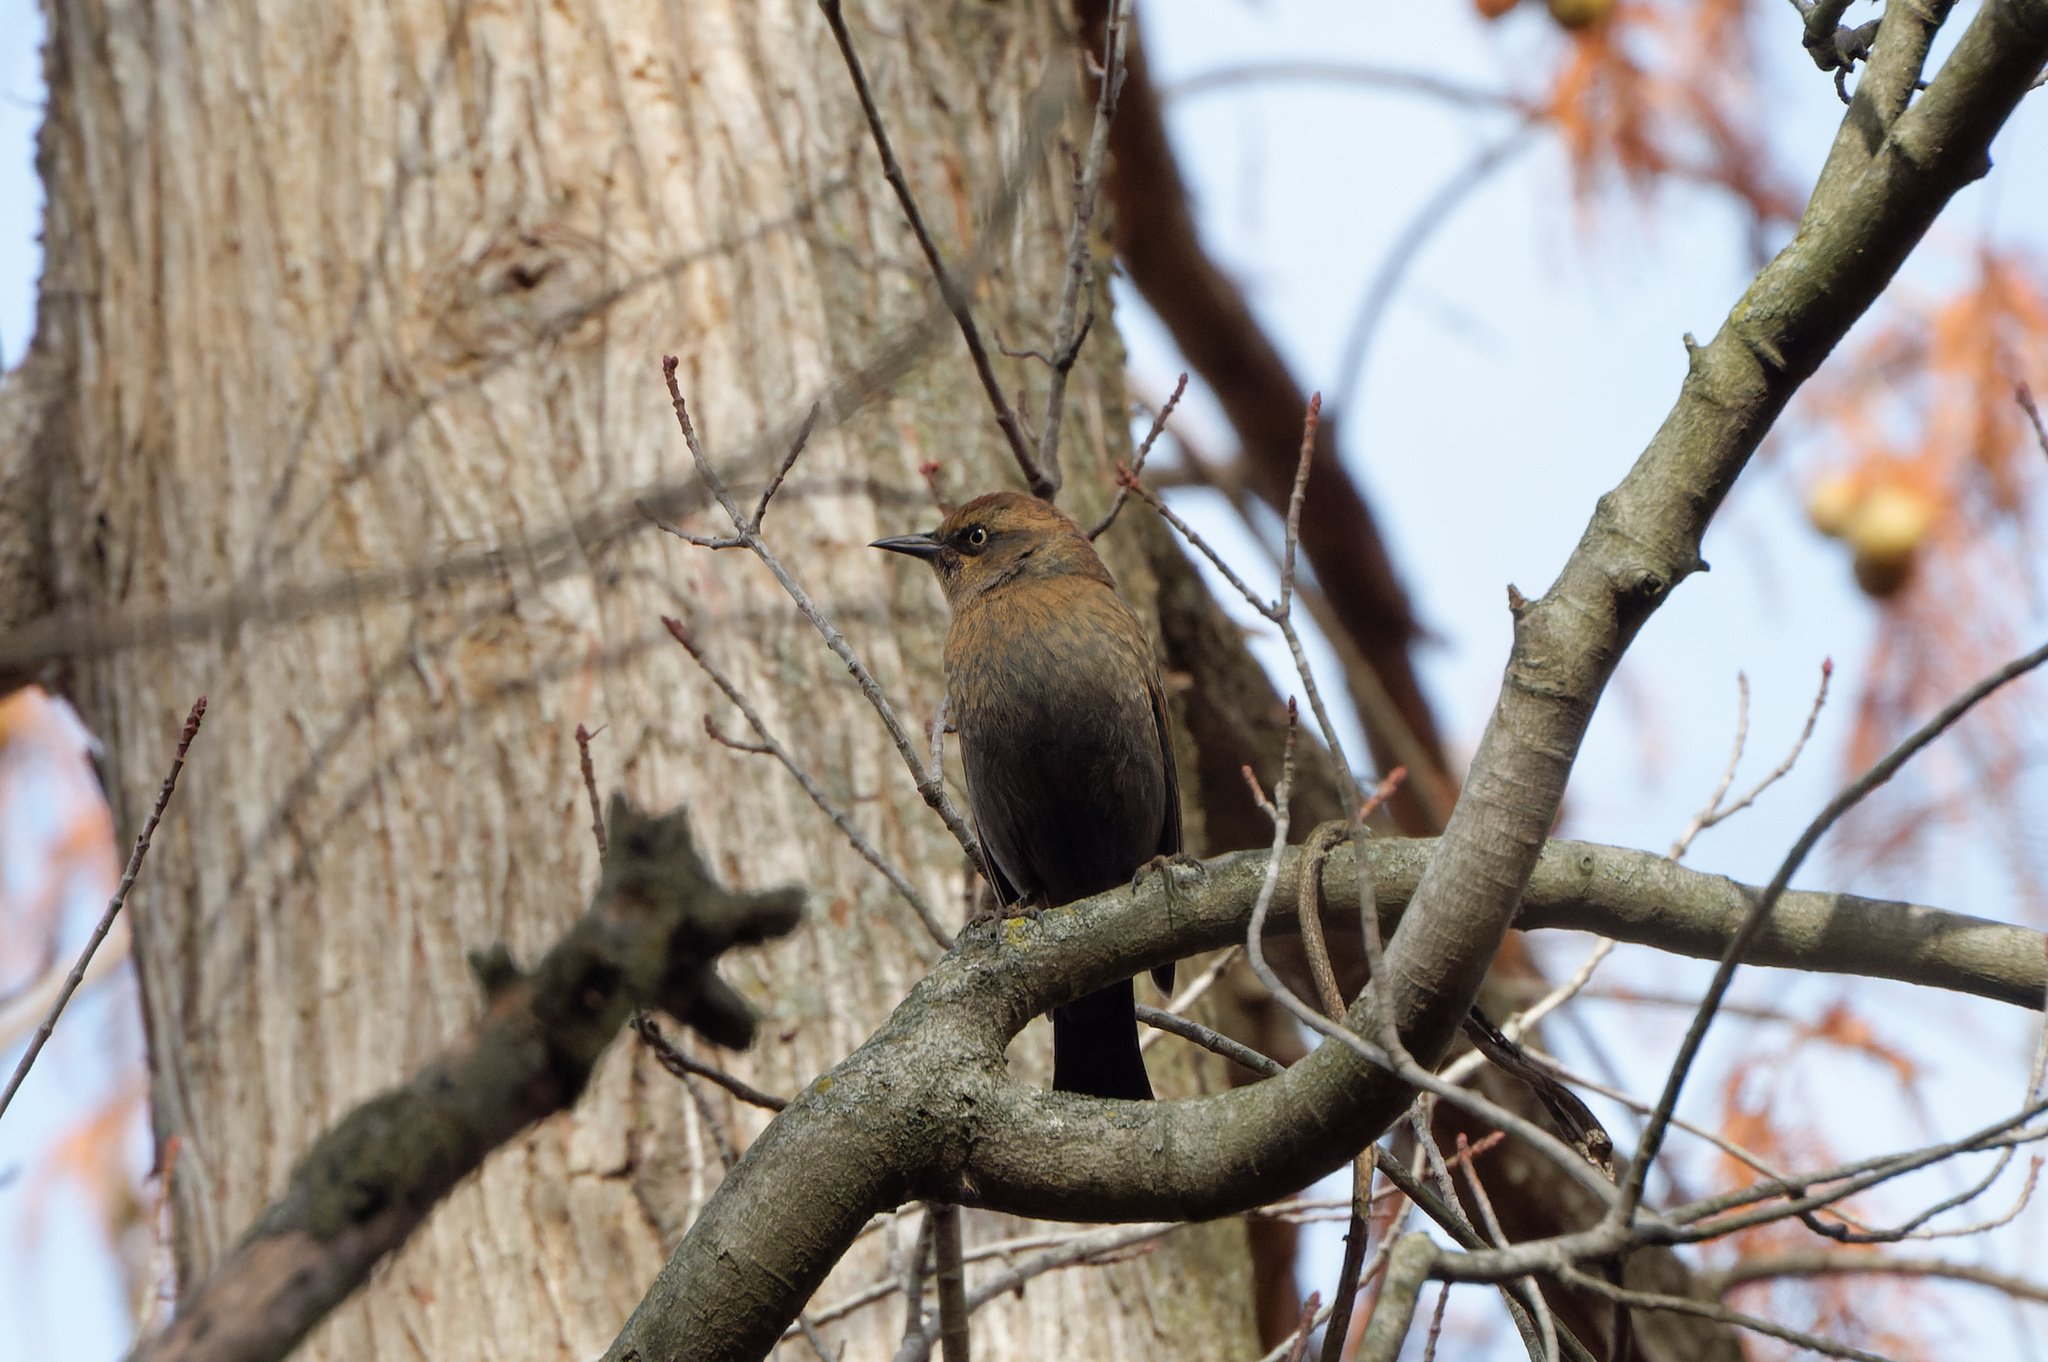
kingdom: Animalia
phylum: Chordata
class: Aves
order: Passeriformes
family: Icteridae
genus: Euphagus
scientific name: Euphagus carolinus
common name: Rusty blackbird
